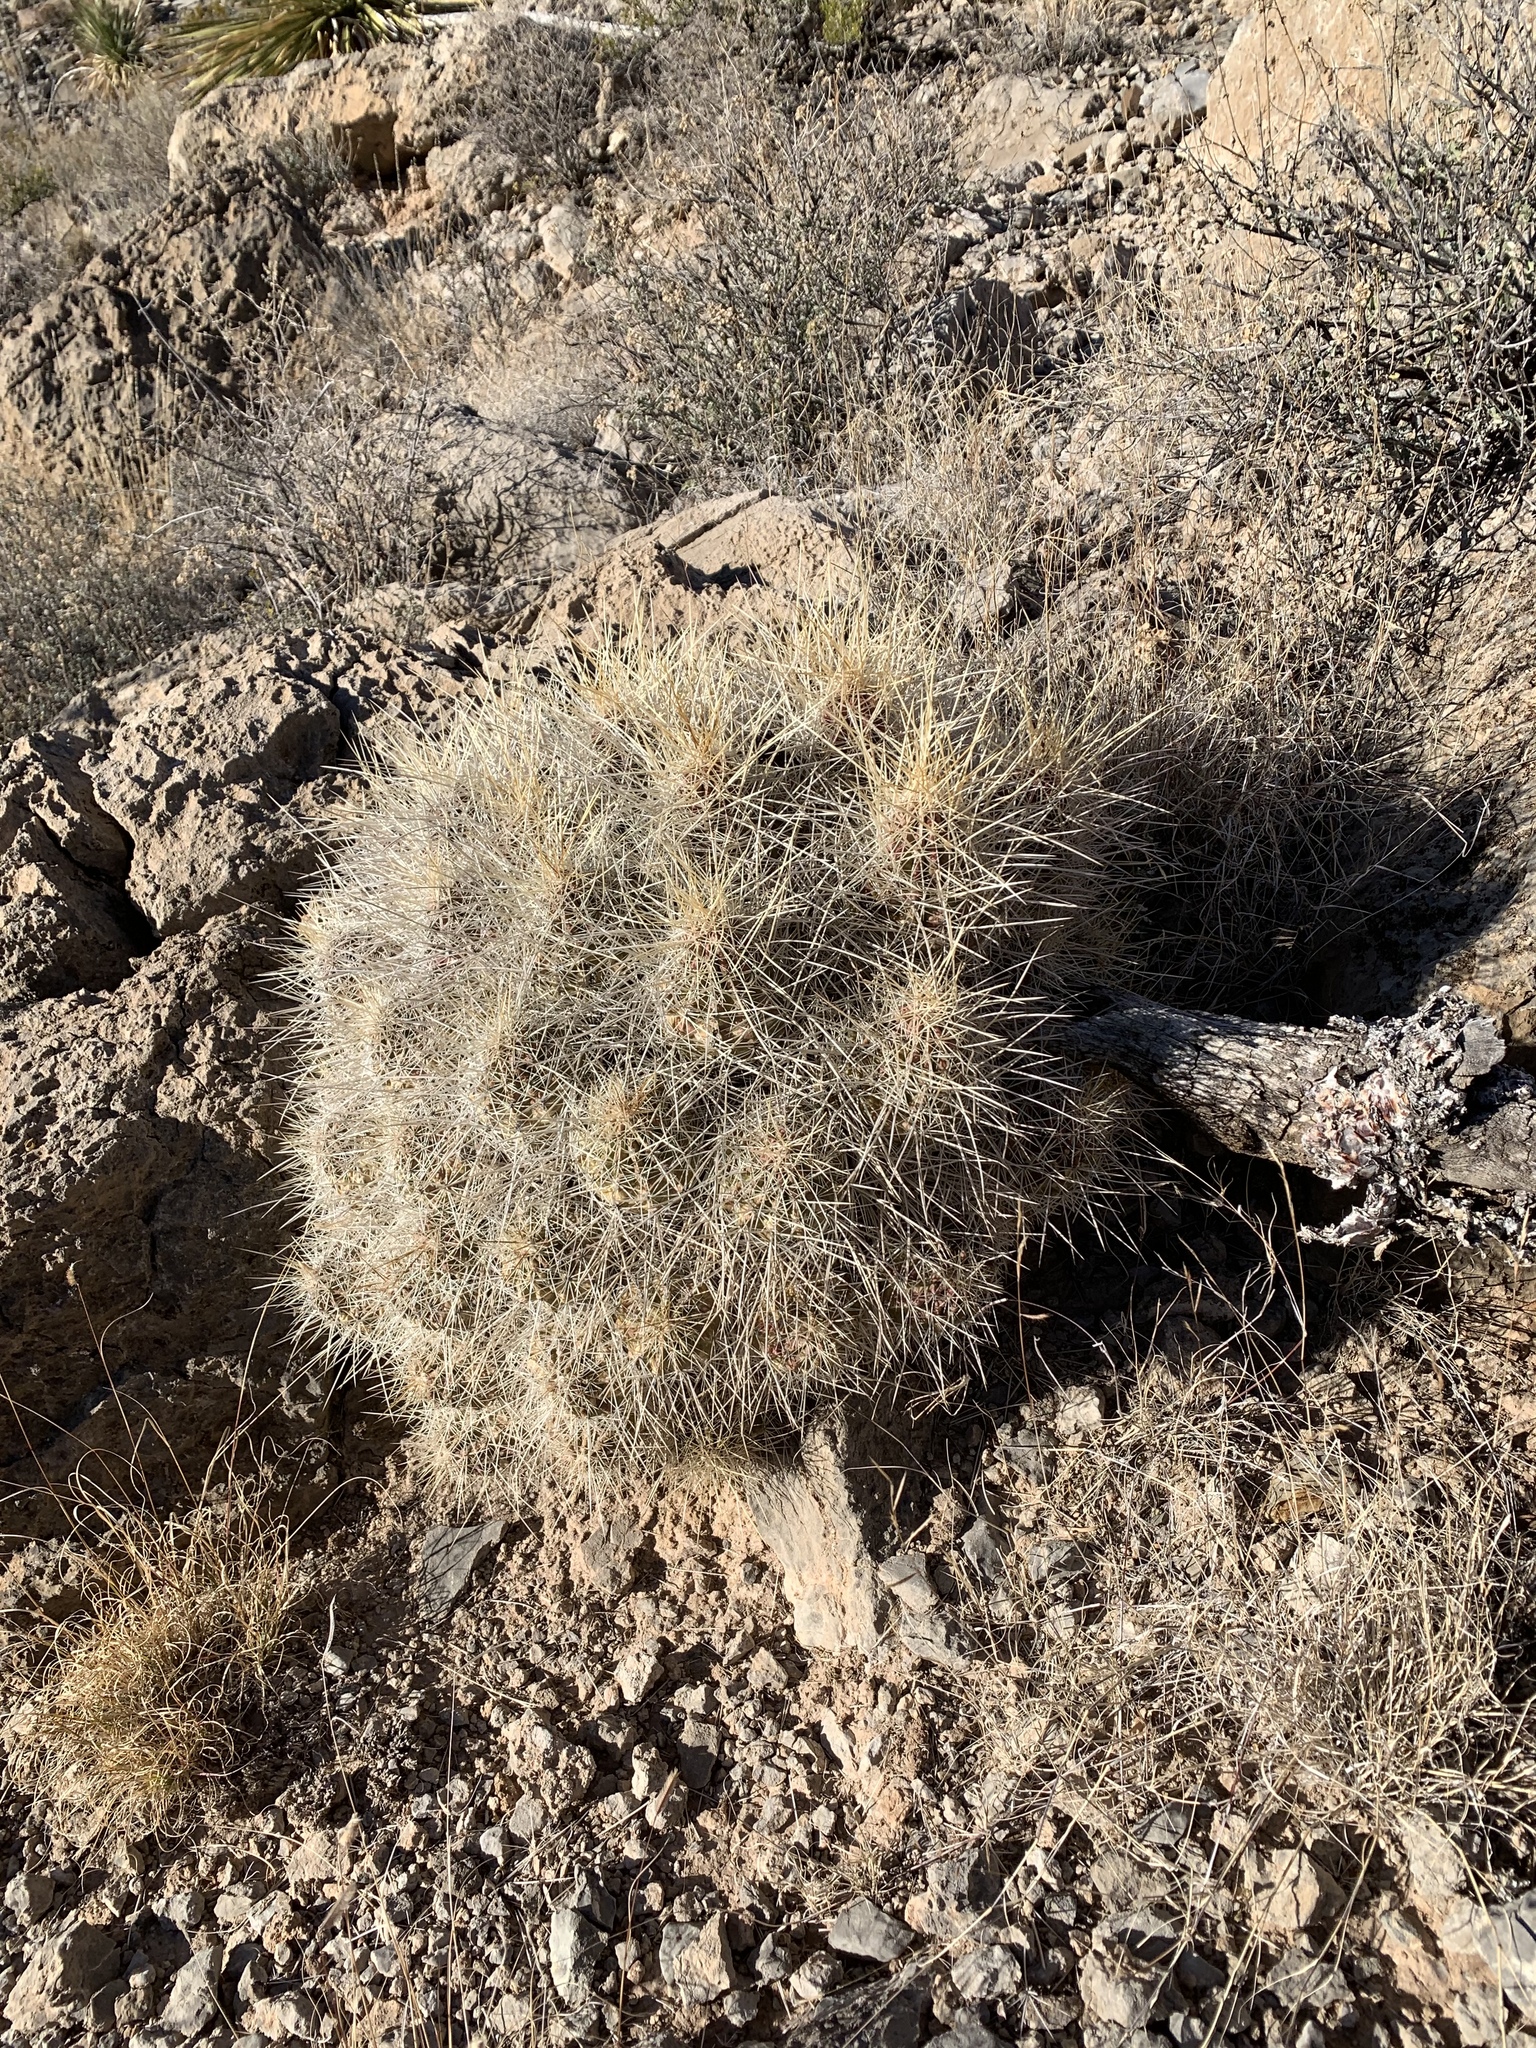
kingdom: Plantae
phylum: Tracheophyta
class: Magnoliopsida
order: Caryophyllales
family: Cactaceae
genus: Echinocereus
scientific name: Echinocereus stramineus
